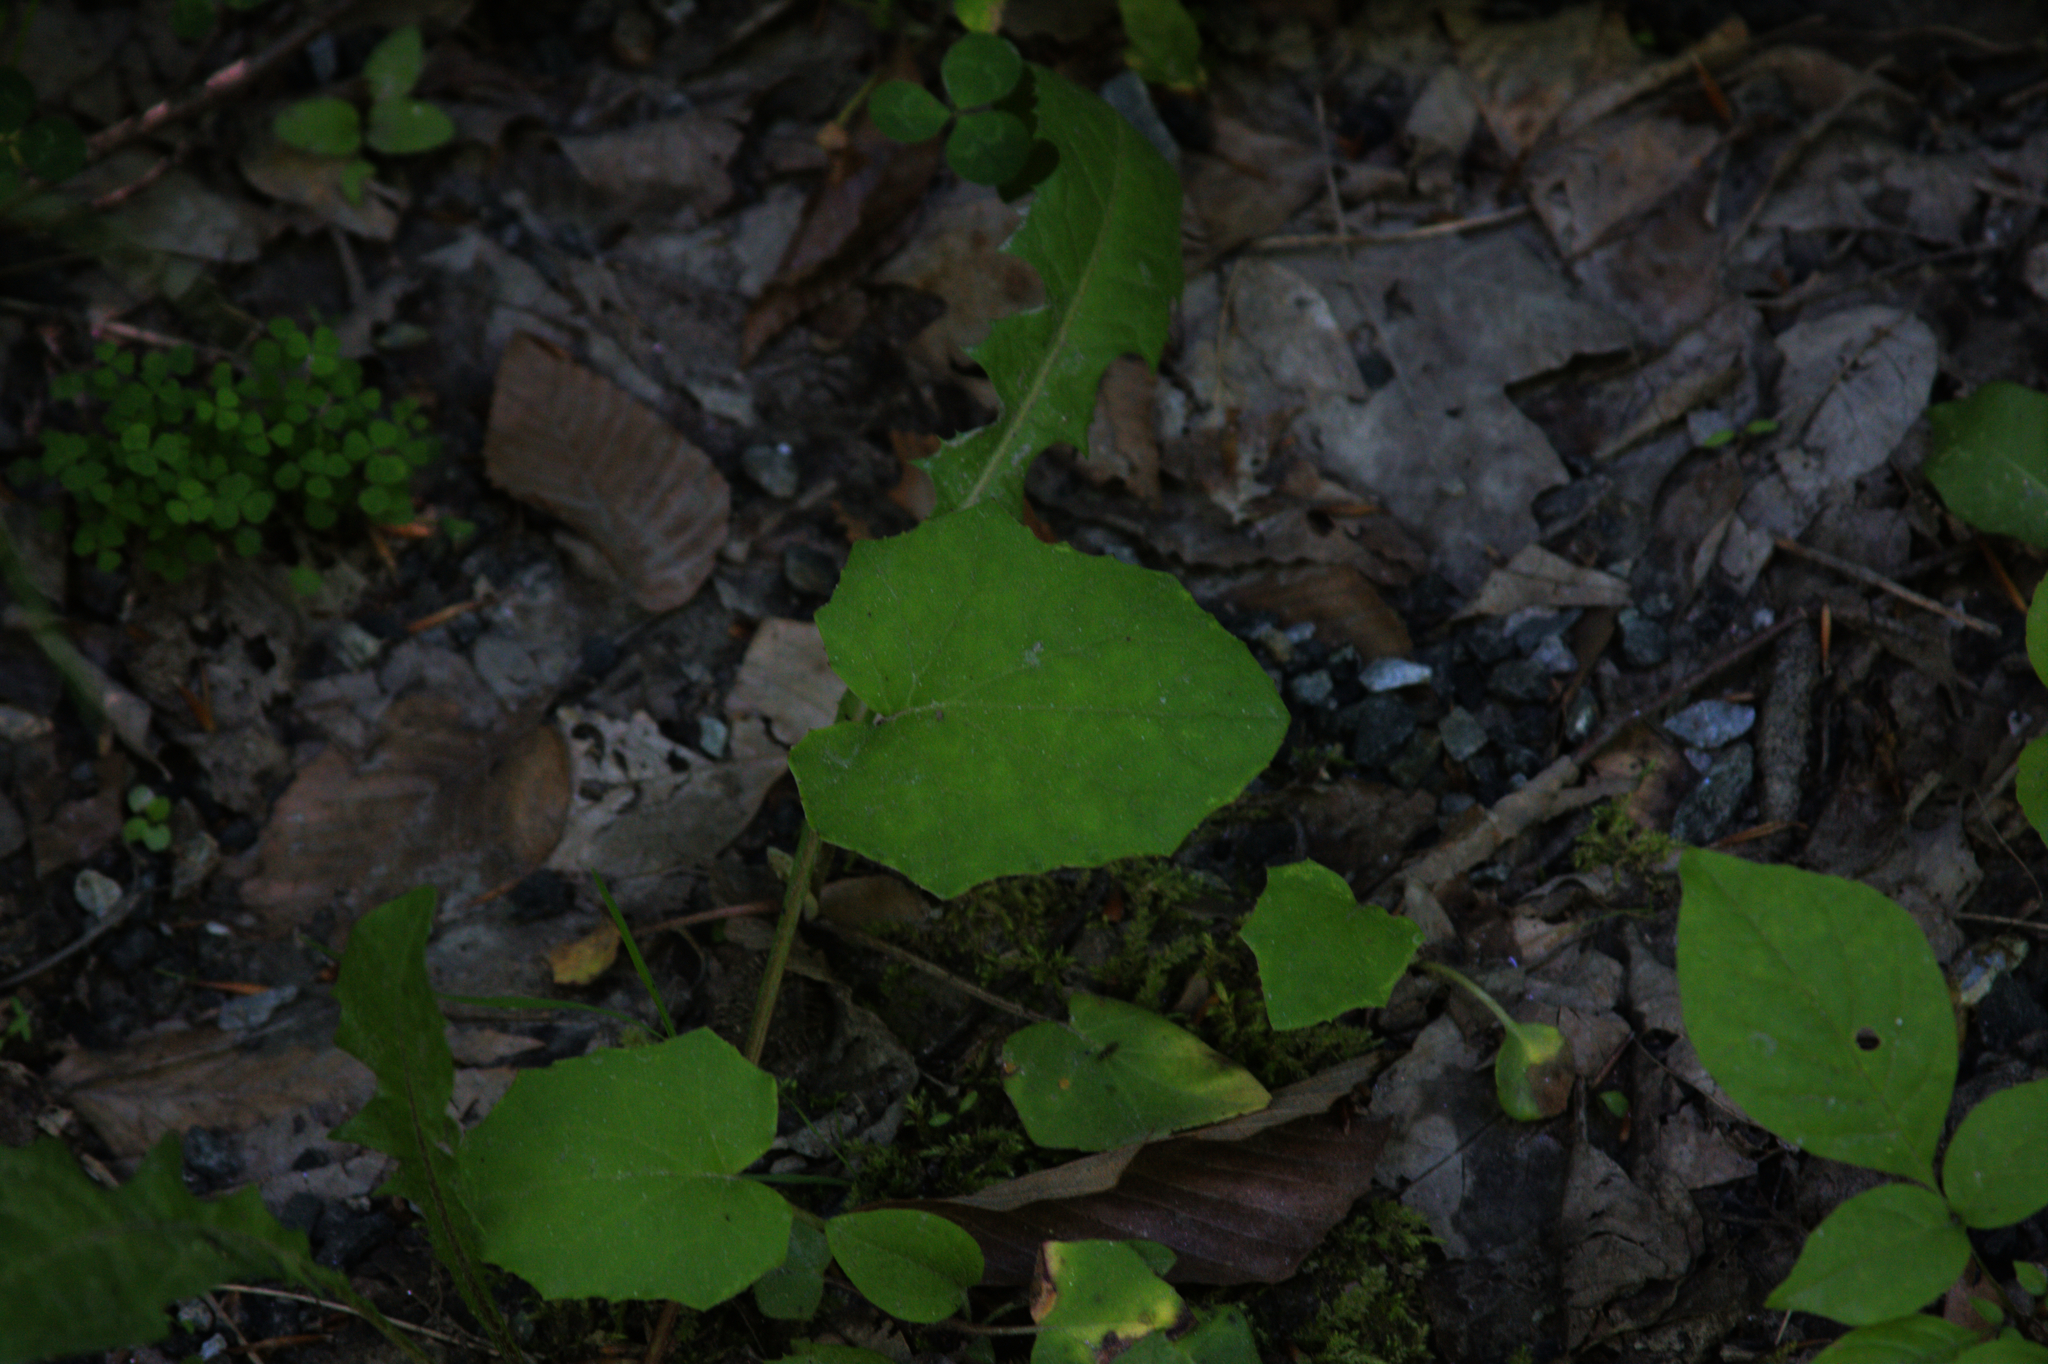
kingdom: Plantae
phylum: Tracheophyta
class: Magnoliopsida
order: Asterales
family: Asteraceae
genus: Tussilago
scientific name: Tussilago farfara
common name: Coltsfoot
